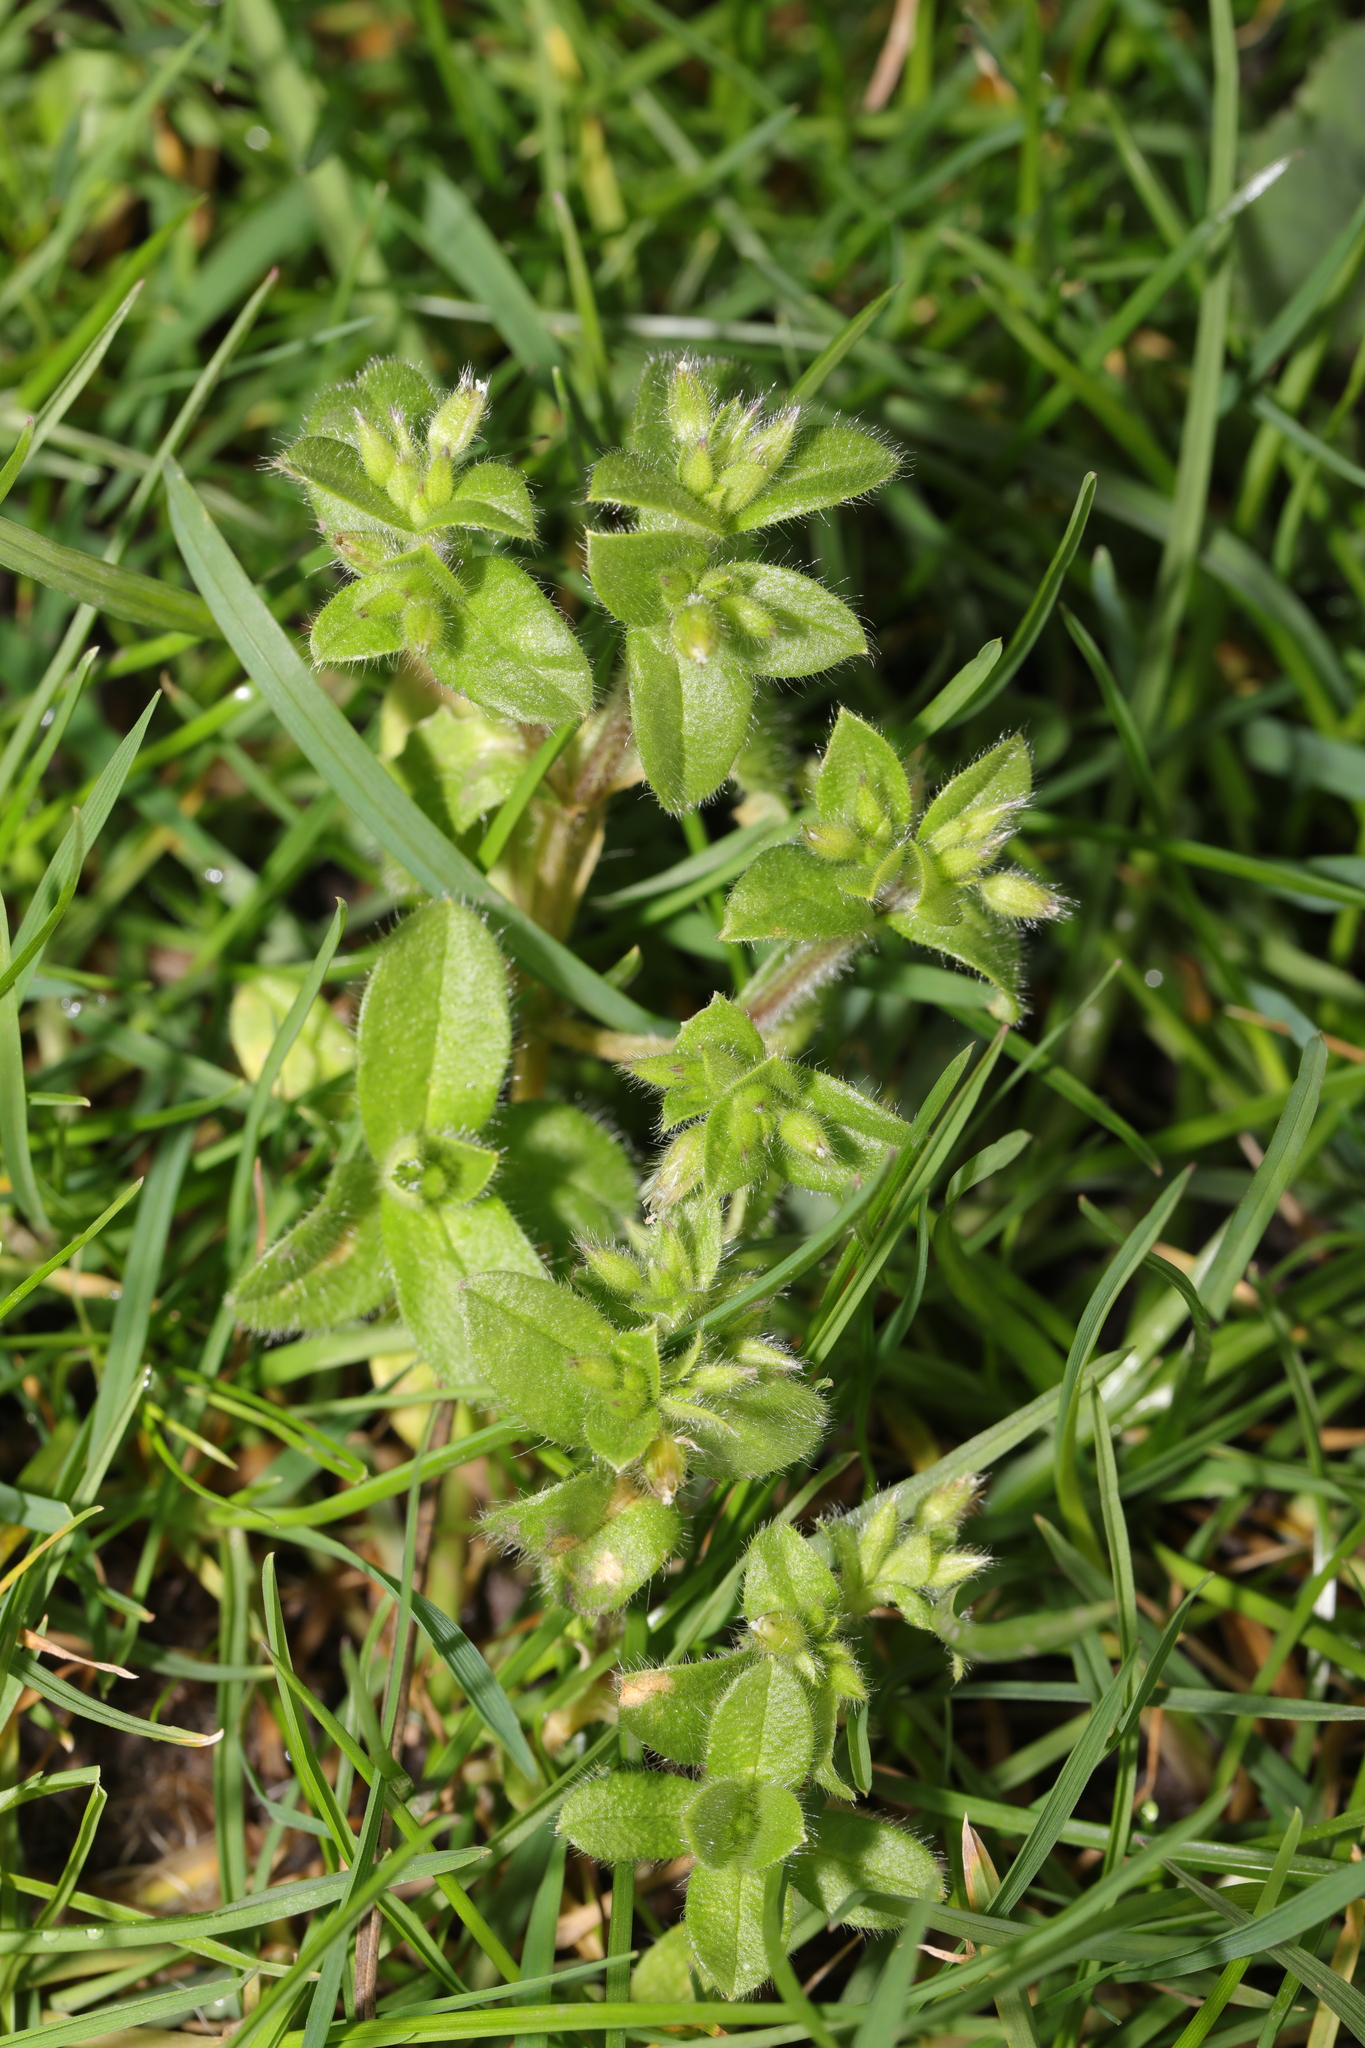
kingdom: Plantae
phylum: Tracheophyta
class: Magnoliopsida
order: Caryophyllales
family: Caryophyllaceae
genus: Cerastium
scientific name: Cerastium glomeratum
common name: Sticky chickweed
